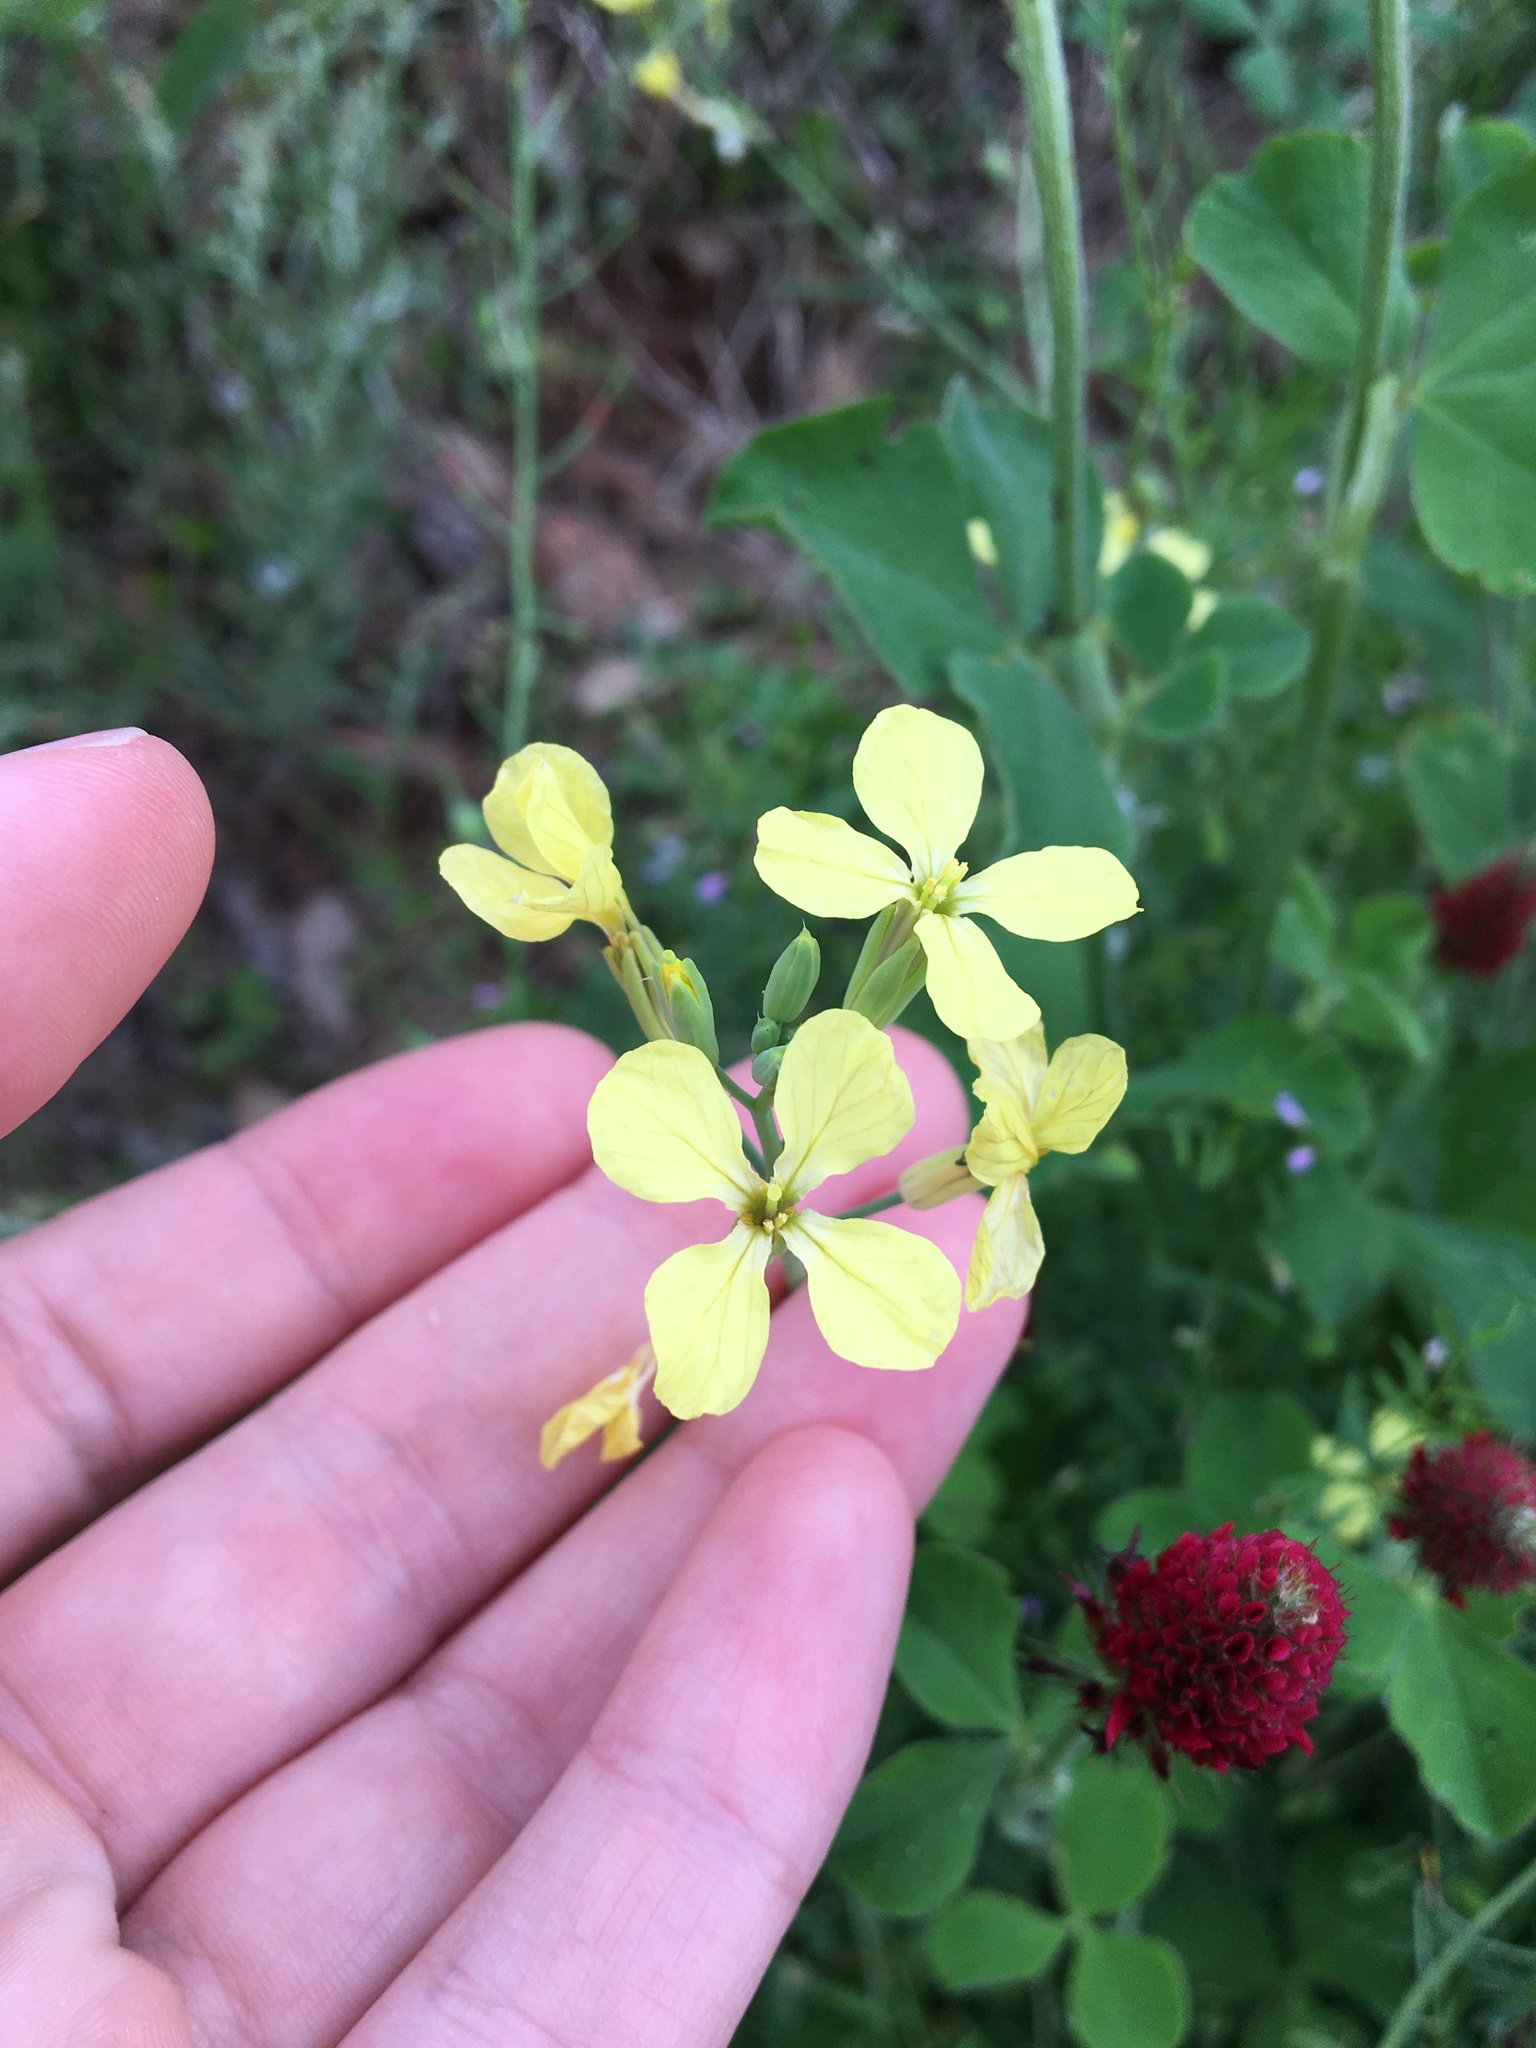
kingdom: Plantae
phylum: Tracheophyta
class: Magnoliopsida
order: Brassicales
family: Brassicaceae
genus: Raphanus
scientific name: Raphanus raphanistrum
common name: Wild radish
